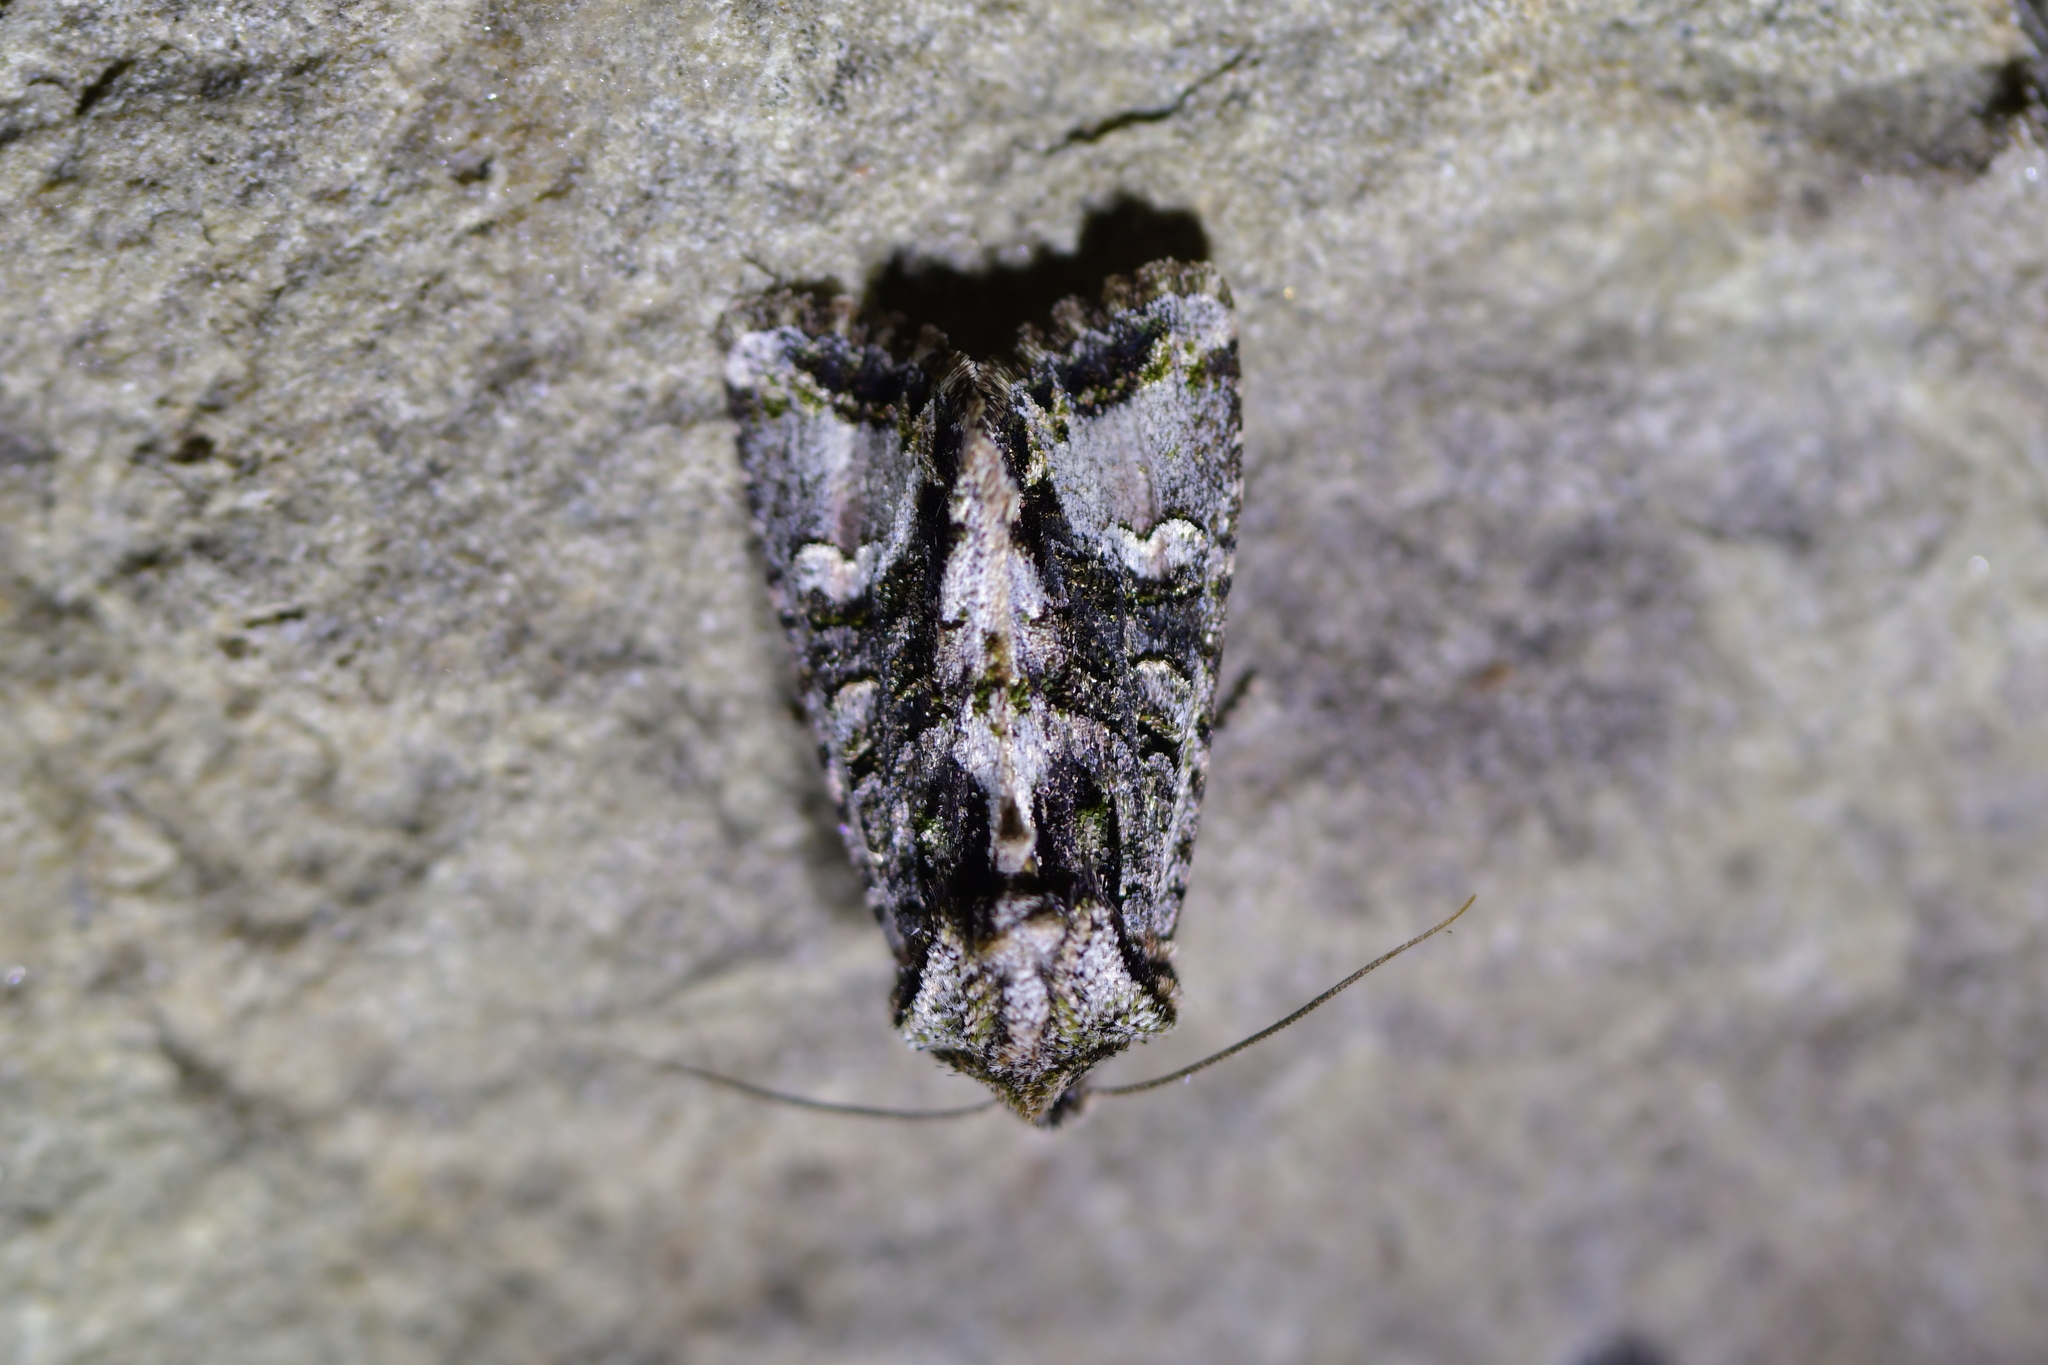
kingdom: Animalia
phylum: Arthropoda
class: Insecta
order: Lepidoptera
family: Noctuidae
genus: Ichneutica
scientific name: Ichneutica insignis
